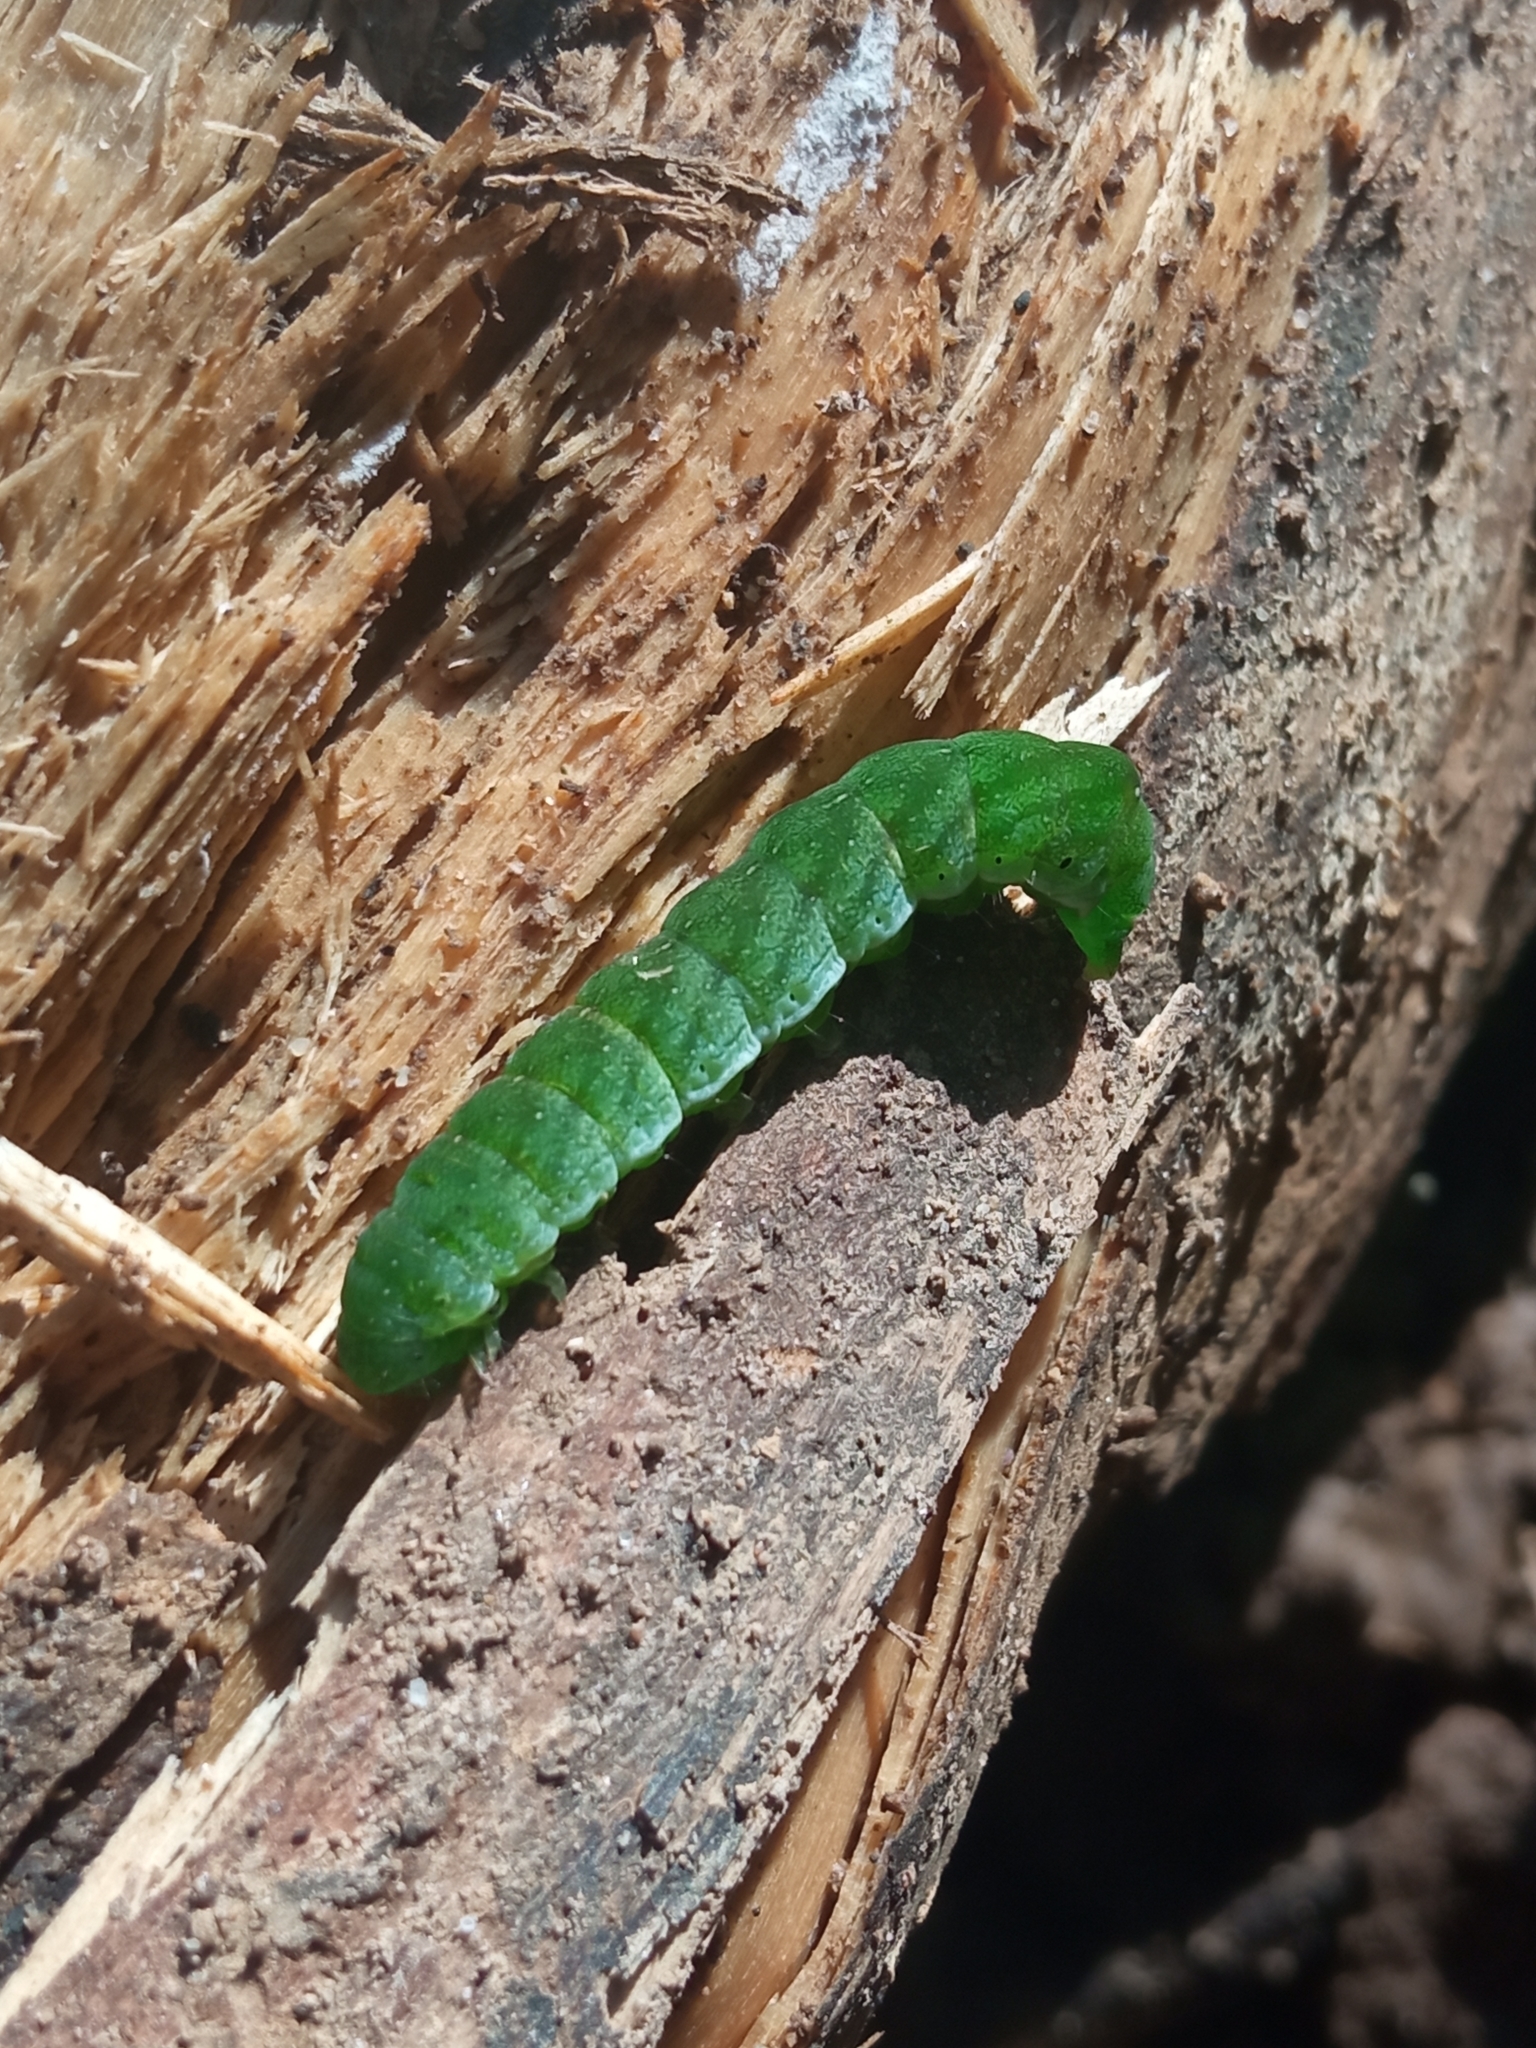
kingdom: Animalia
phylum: Arthropoda
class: Insecta
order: Lepidoptera
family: Noctuidae
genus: Euplexia
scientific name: Euplexia lucipara
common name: Small angle shades
